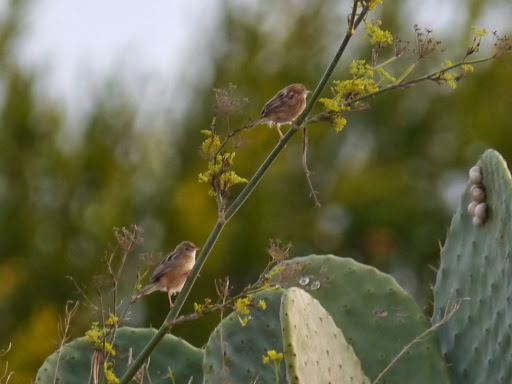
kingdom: Animalia
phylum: Chordata
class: Aves
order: Passeriformes
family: Cisticolidae
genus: Cisticola
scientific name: Cisticola juncidis
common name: Zitting cisticola
